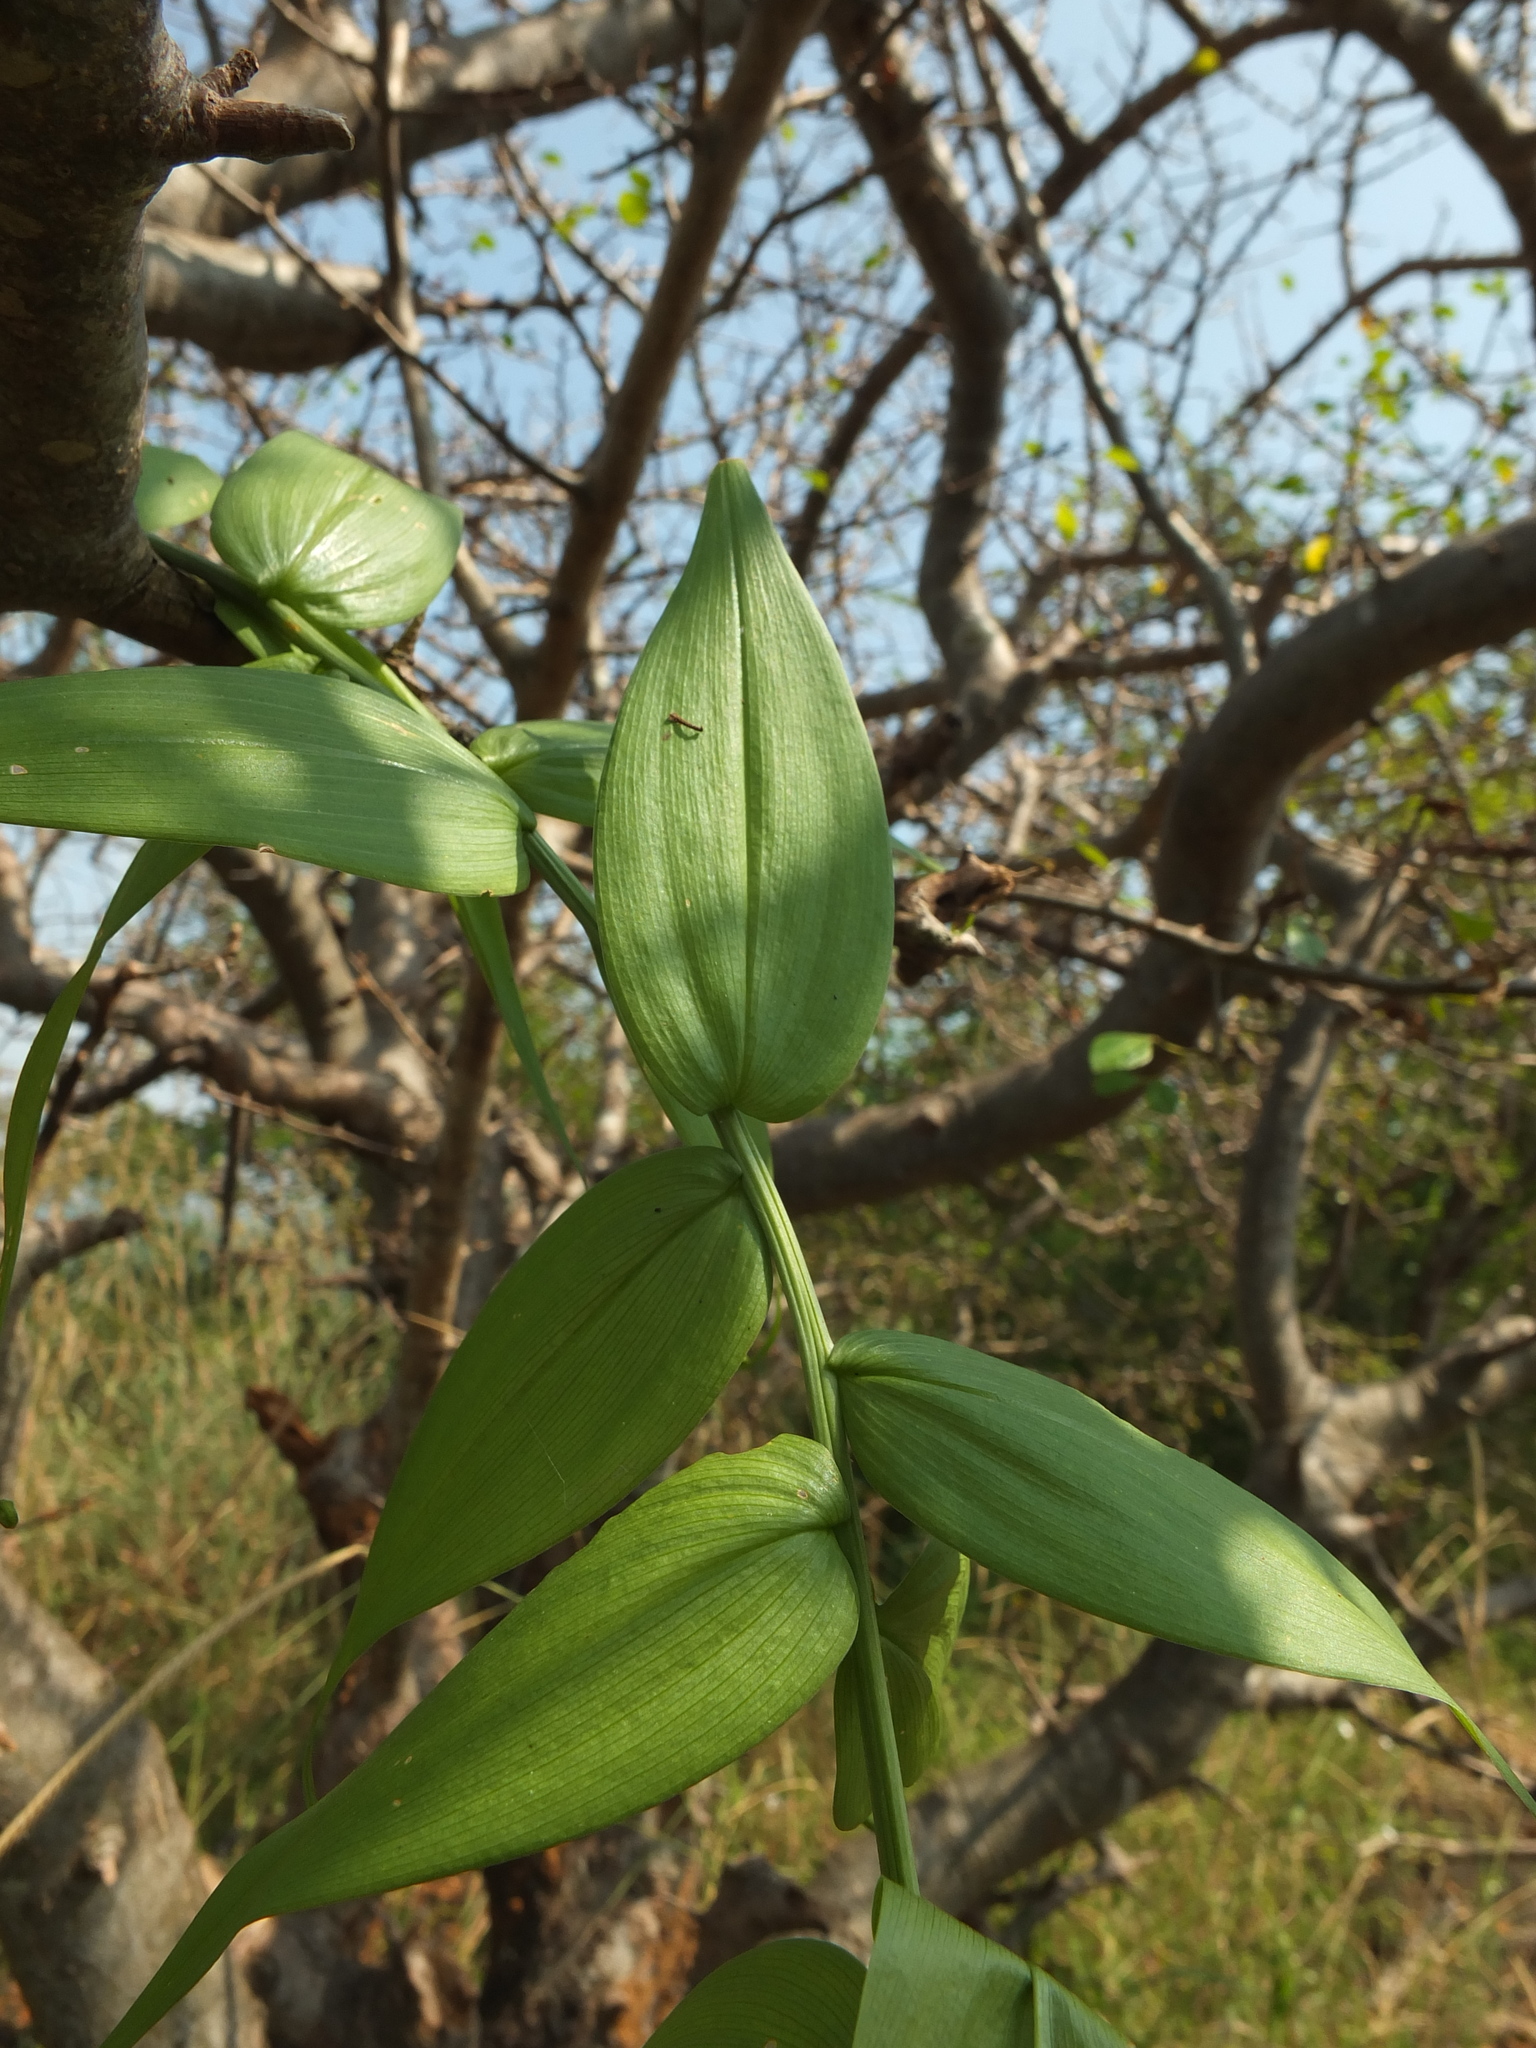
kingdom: Plantae
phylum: Tracheophyta
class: Liliopsida
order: Liliales
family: Colchicaceae
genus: Gloriosa
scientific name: Gloriosa superba
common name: Flame lily
